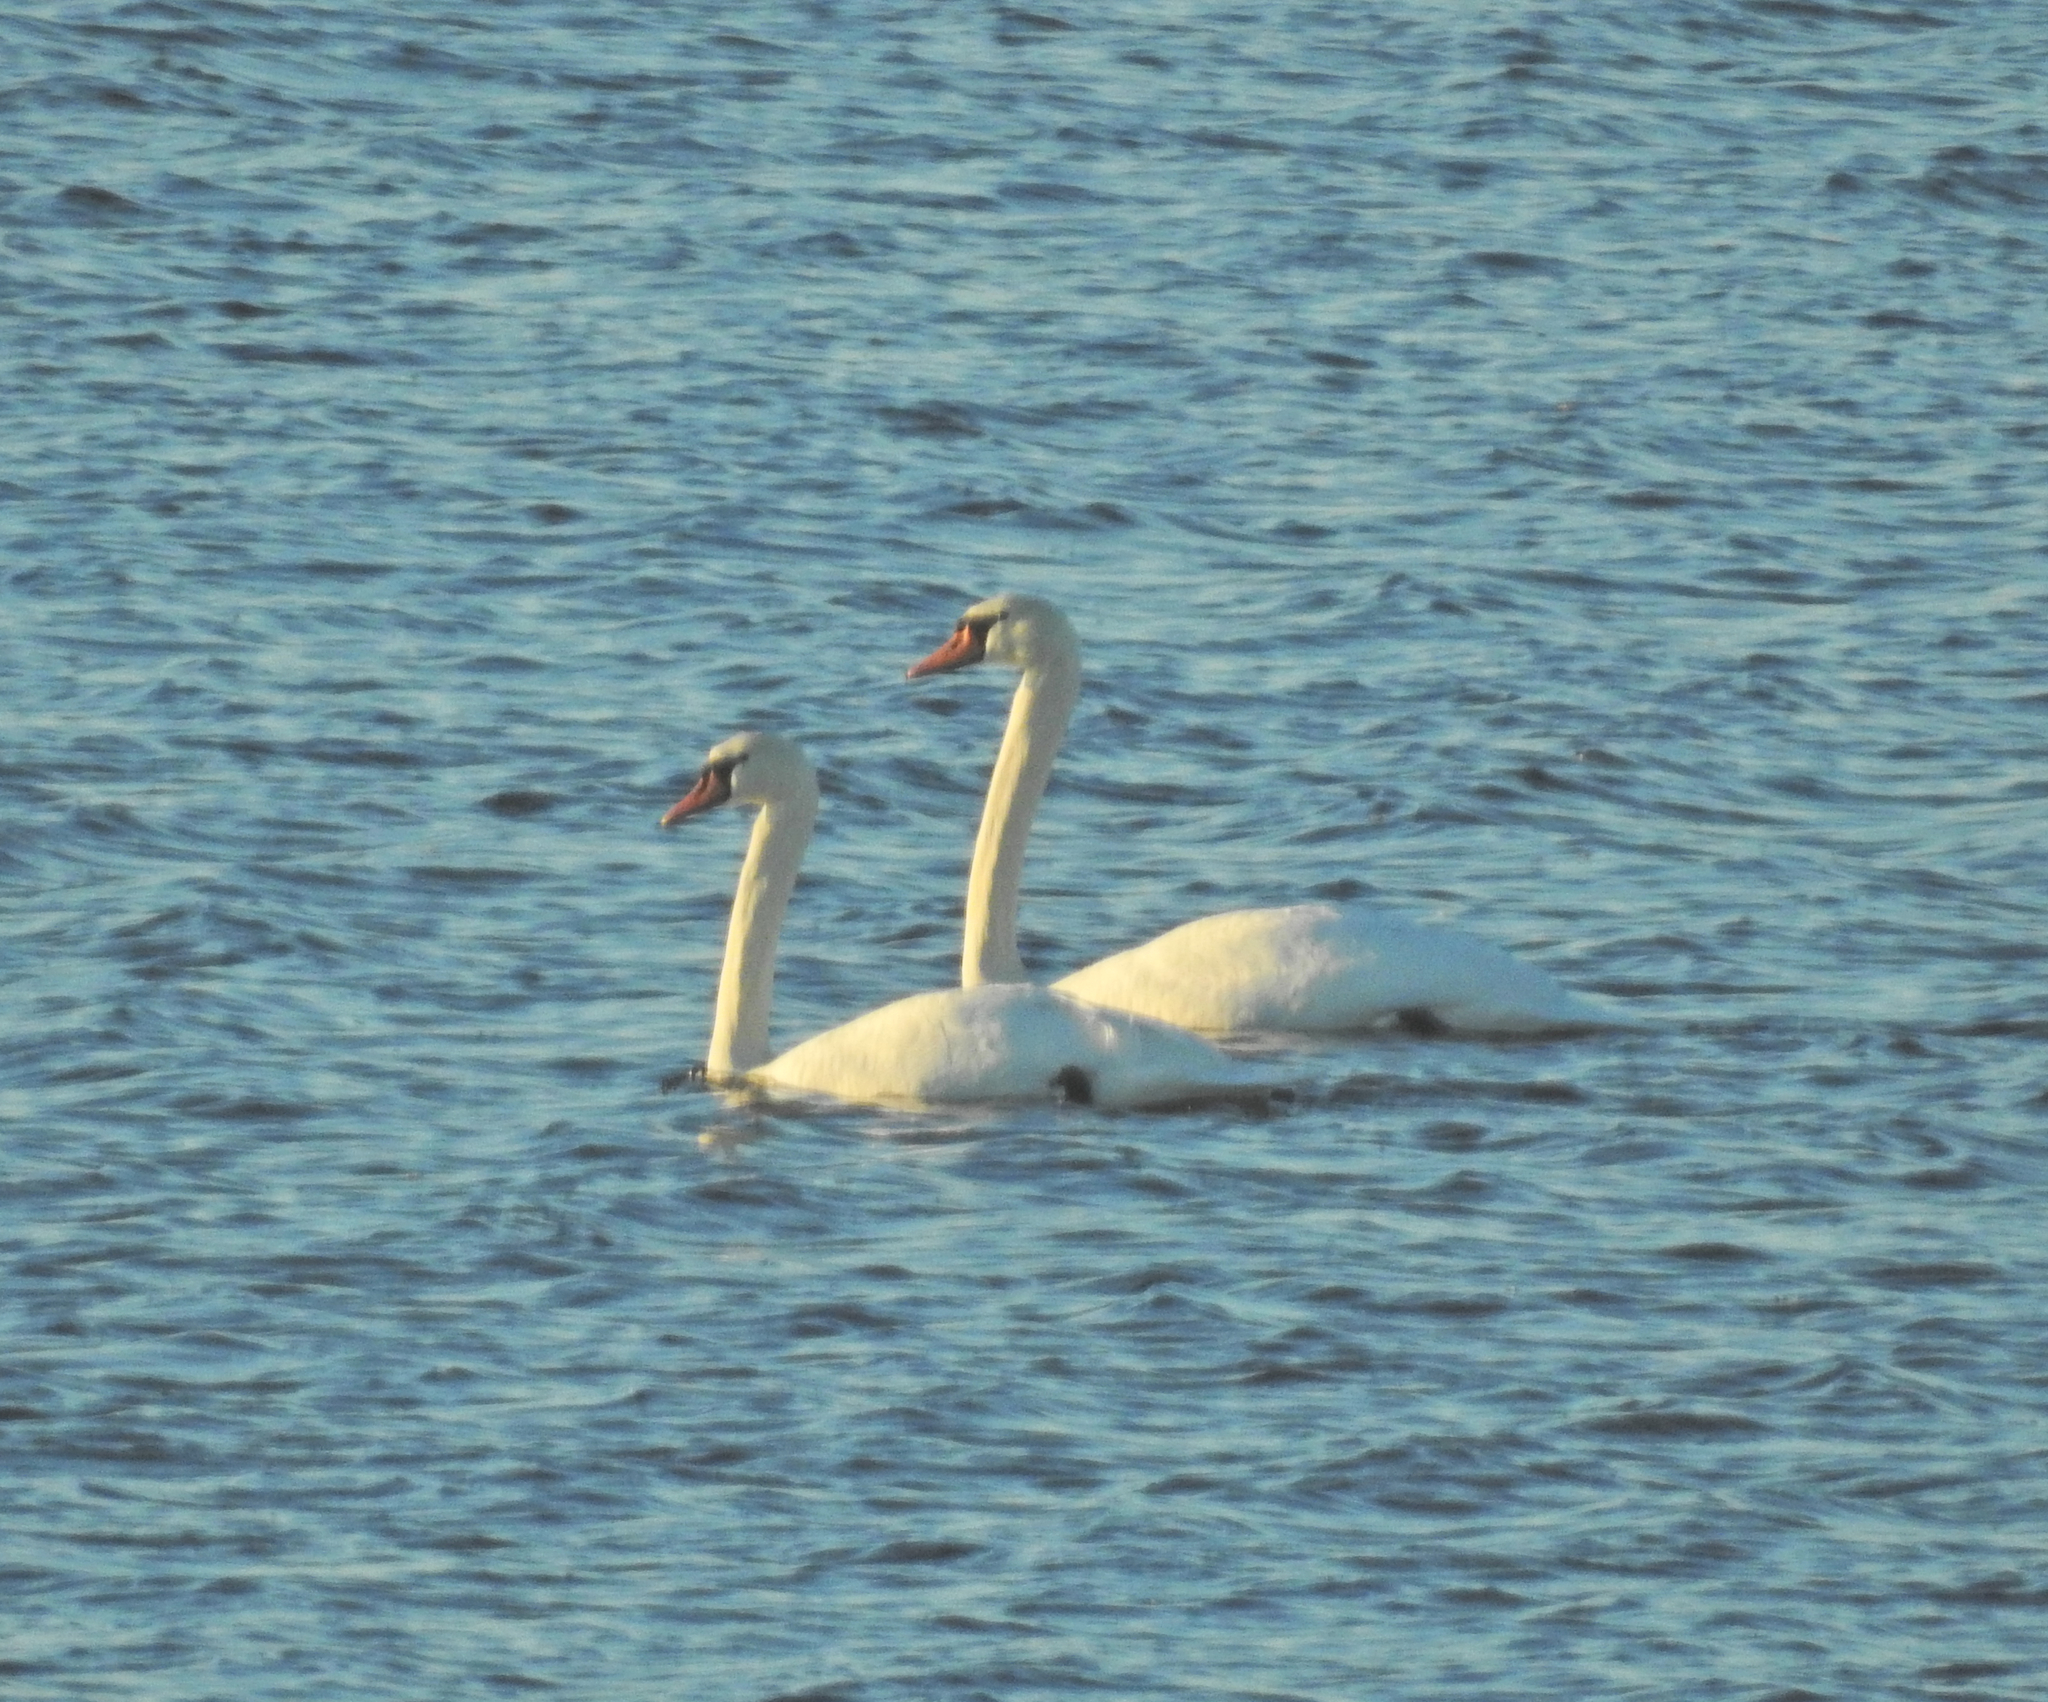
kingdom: Animalia
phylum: Chordata
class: Aves
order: Anseriformes
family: Anatidae
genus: Cygnus
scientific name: Cygnus olor
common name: Mute swan
